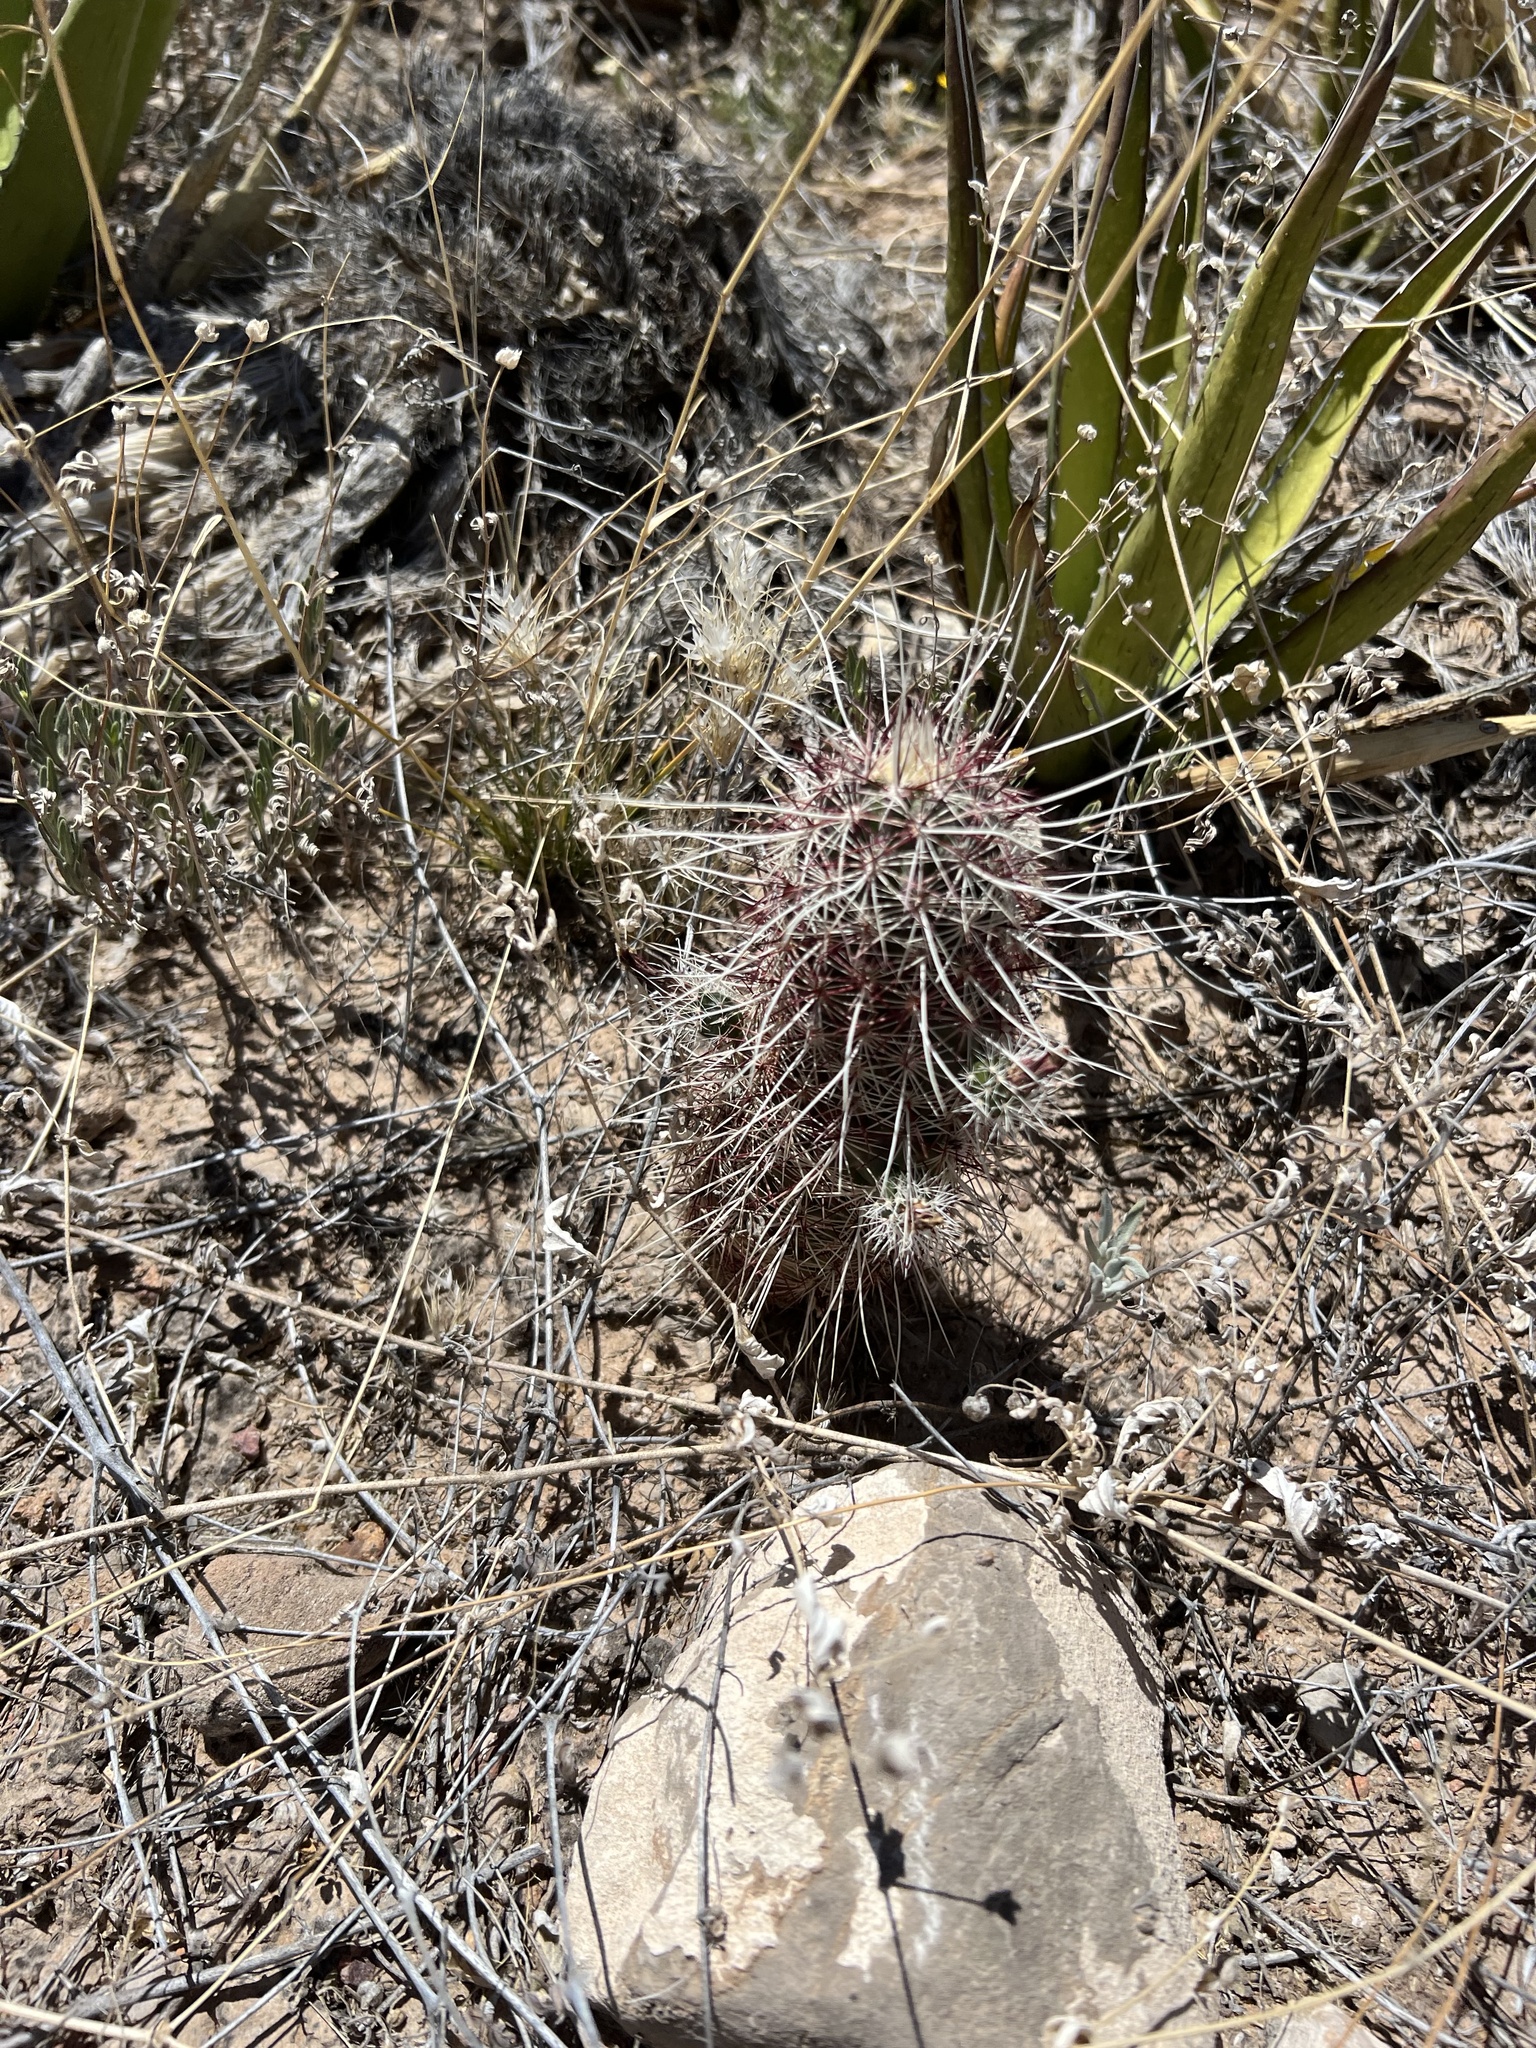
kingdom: Plantae
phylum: Tracheophyta
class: Magnoliopsida
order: Caryophyllales
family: Cactaceae
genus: Echinocereus
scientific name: Echinocereus viridiflorus
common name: Nylon hedgehog cactus
